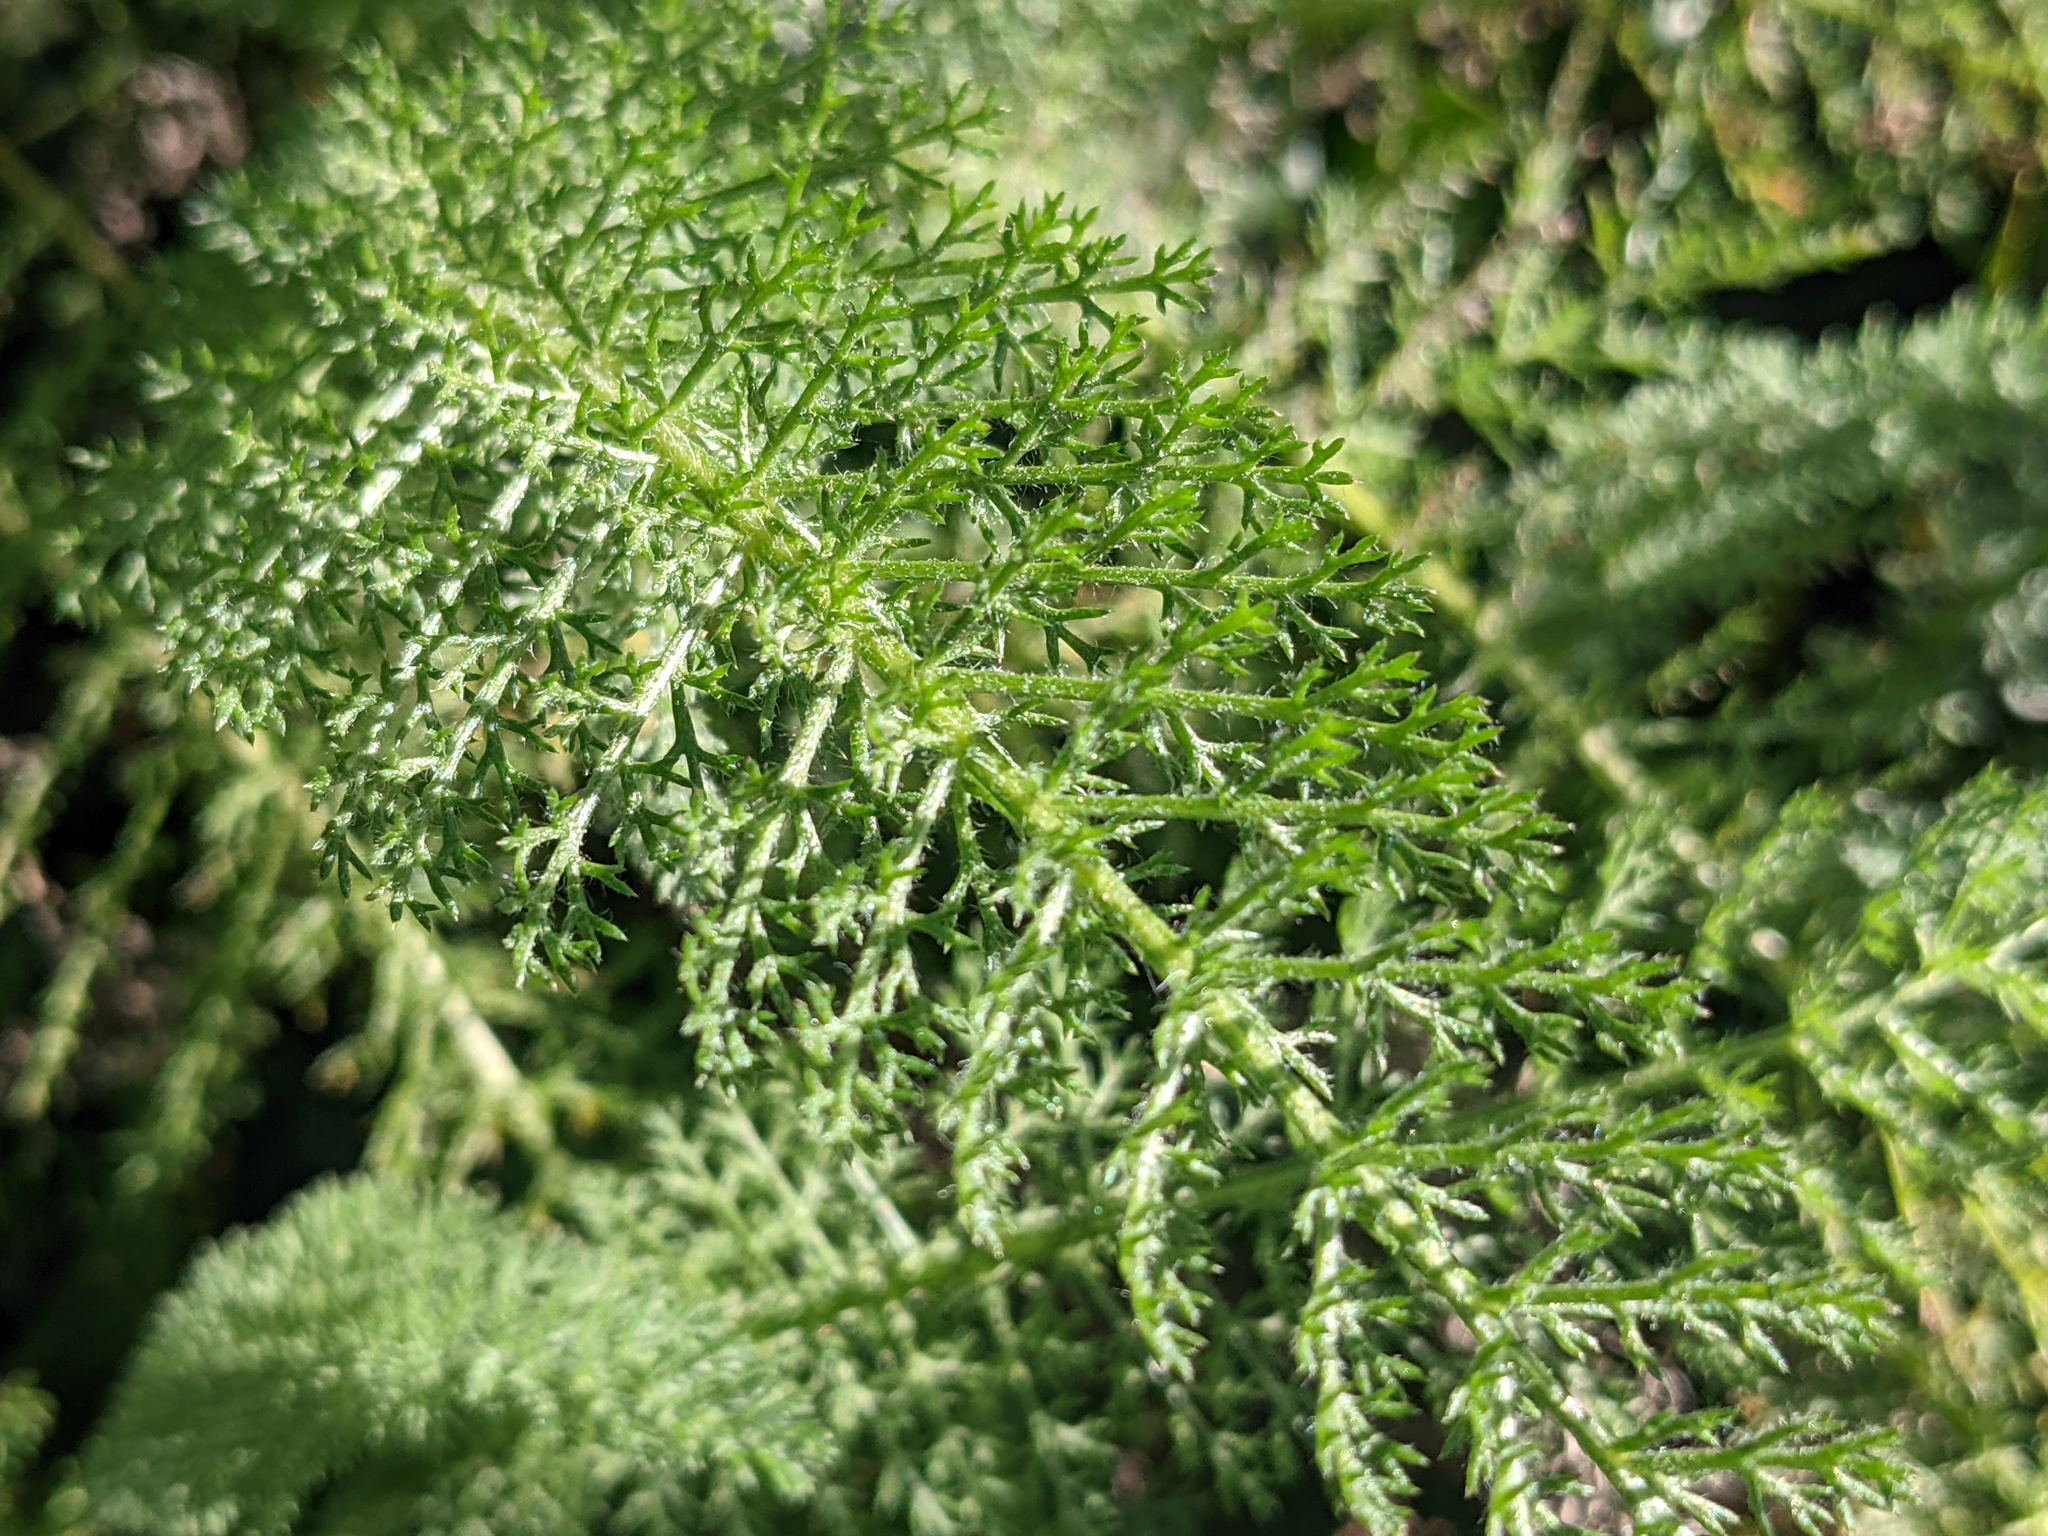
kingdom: Plantae
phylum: Tracheophyta
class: Magnoliopsida
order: Asterales
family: Asteraceae
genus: Achillea
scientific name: Achillea millefolium
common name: Yarrow
